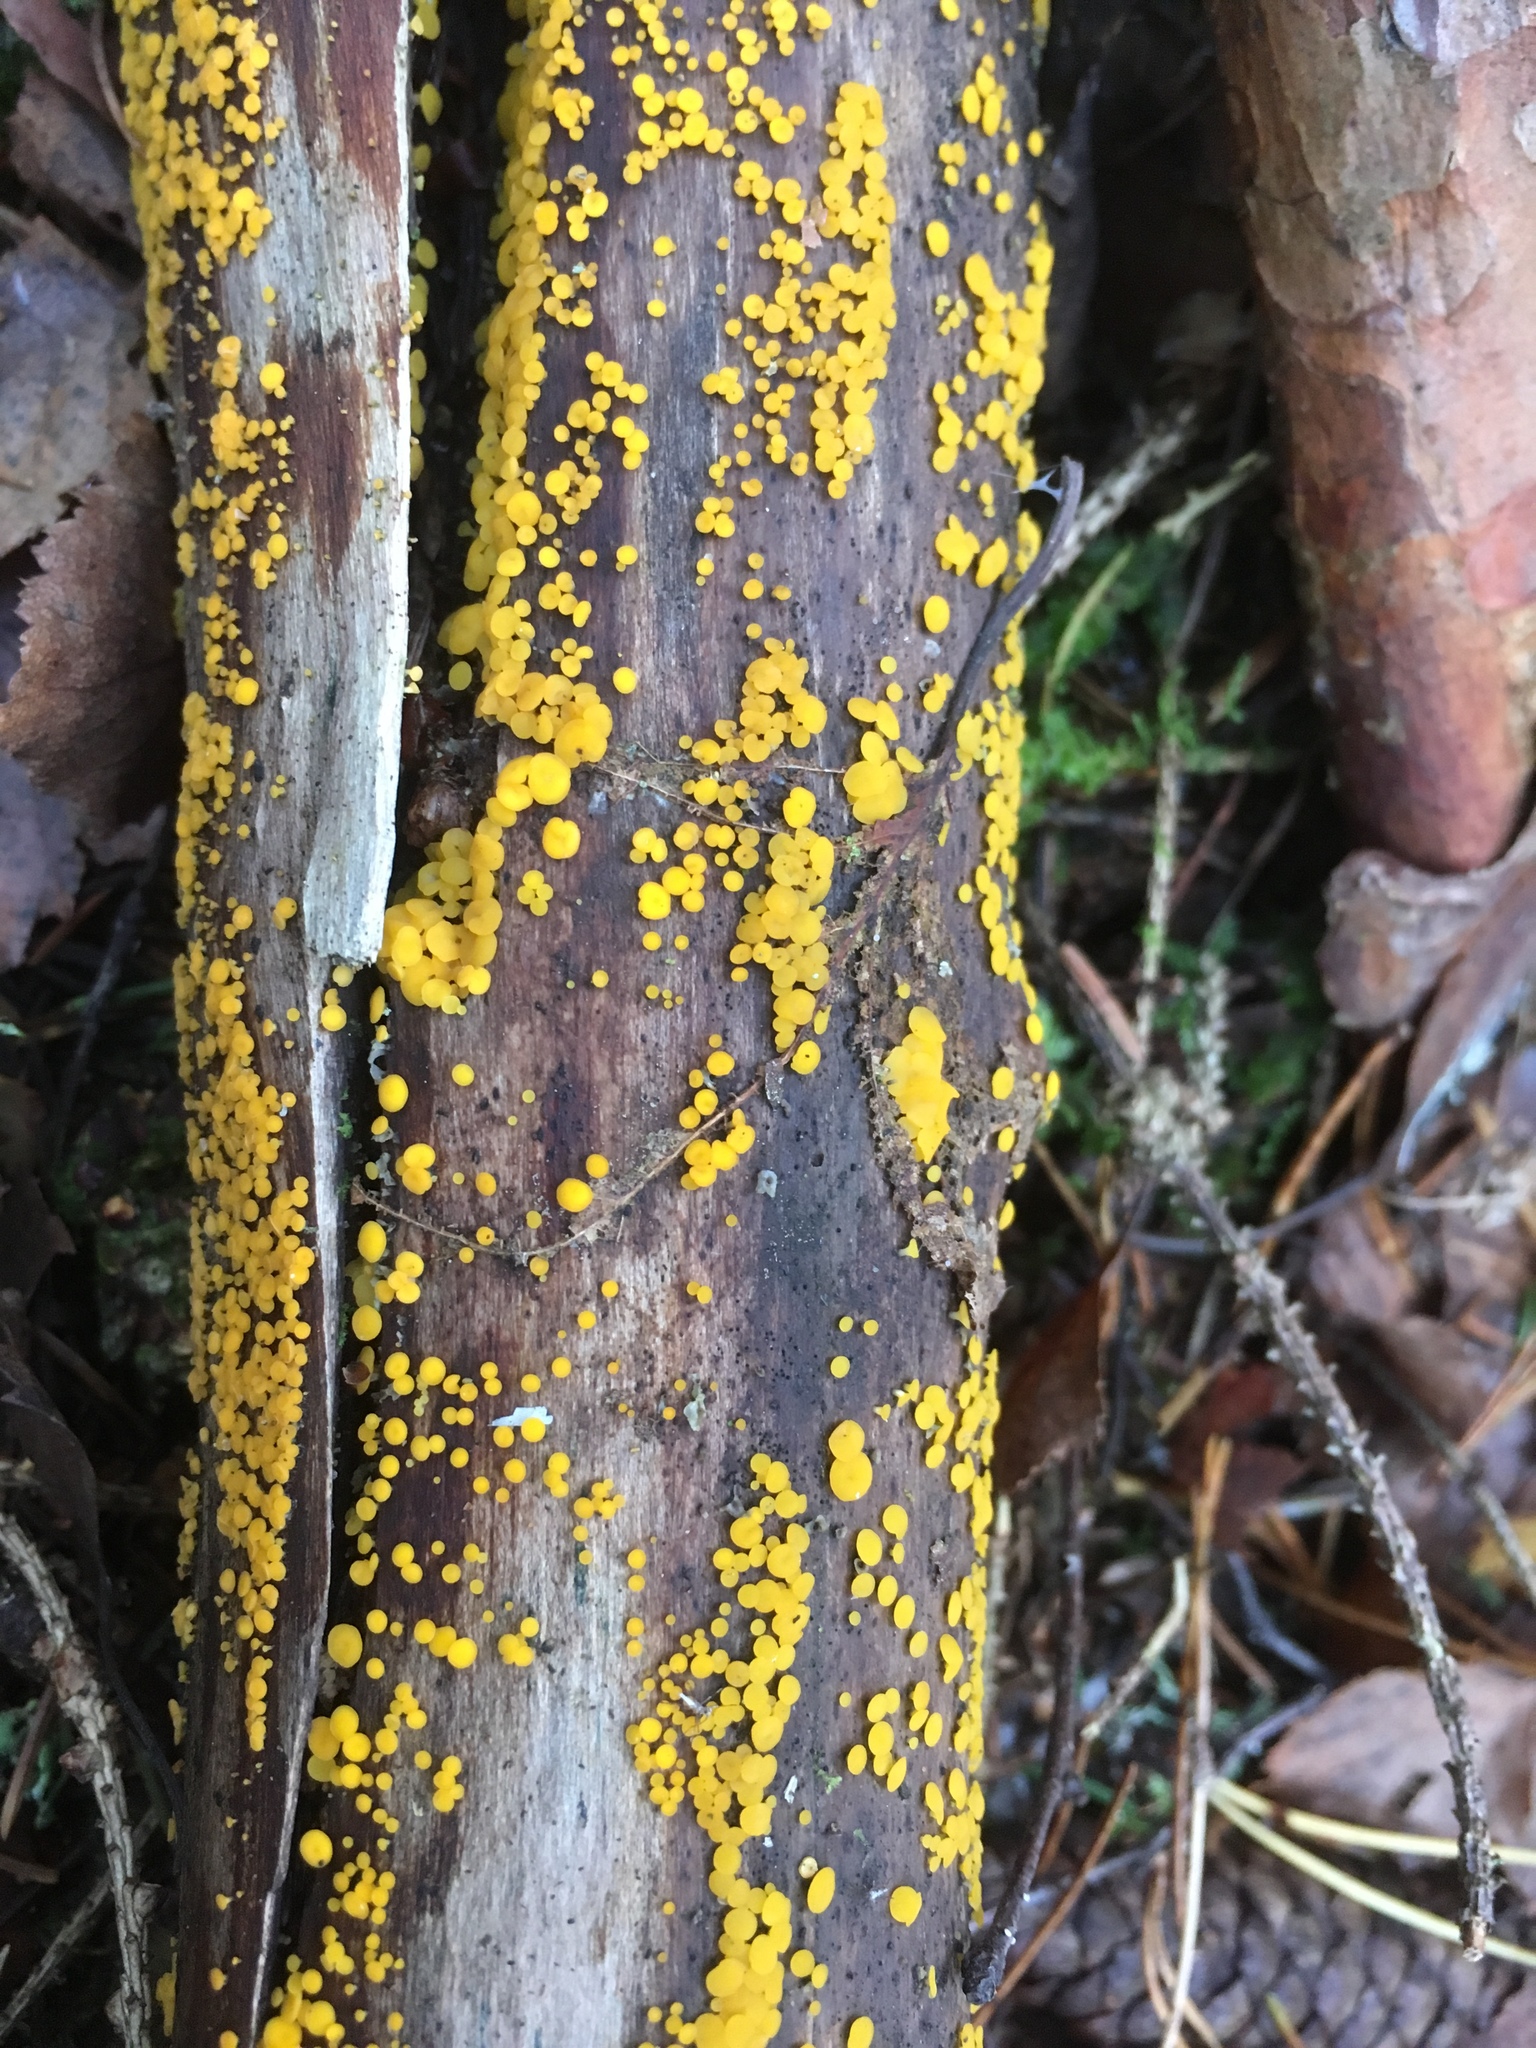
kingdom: Fungi
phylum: Ascomycota
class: Leotiomycetes
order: Helotiales
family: Pezizellaceae
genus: Calycina
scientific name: Calycina citrina
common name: Yellow fairy cups
